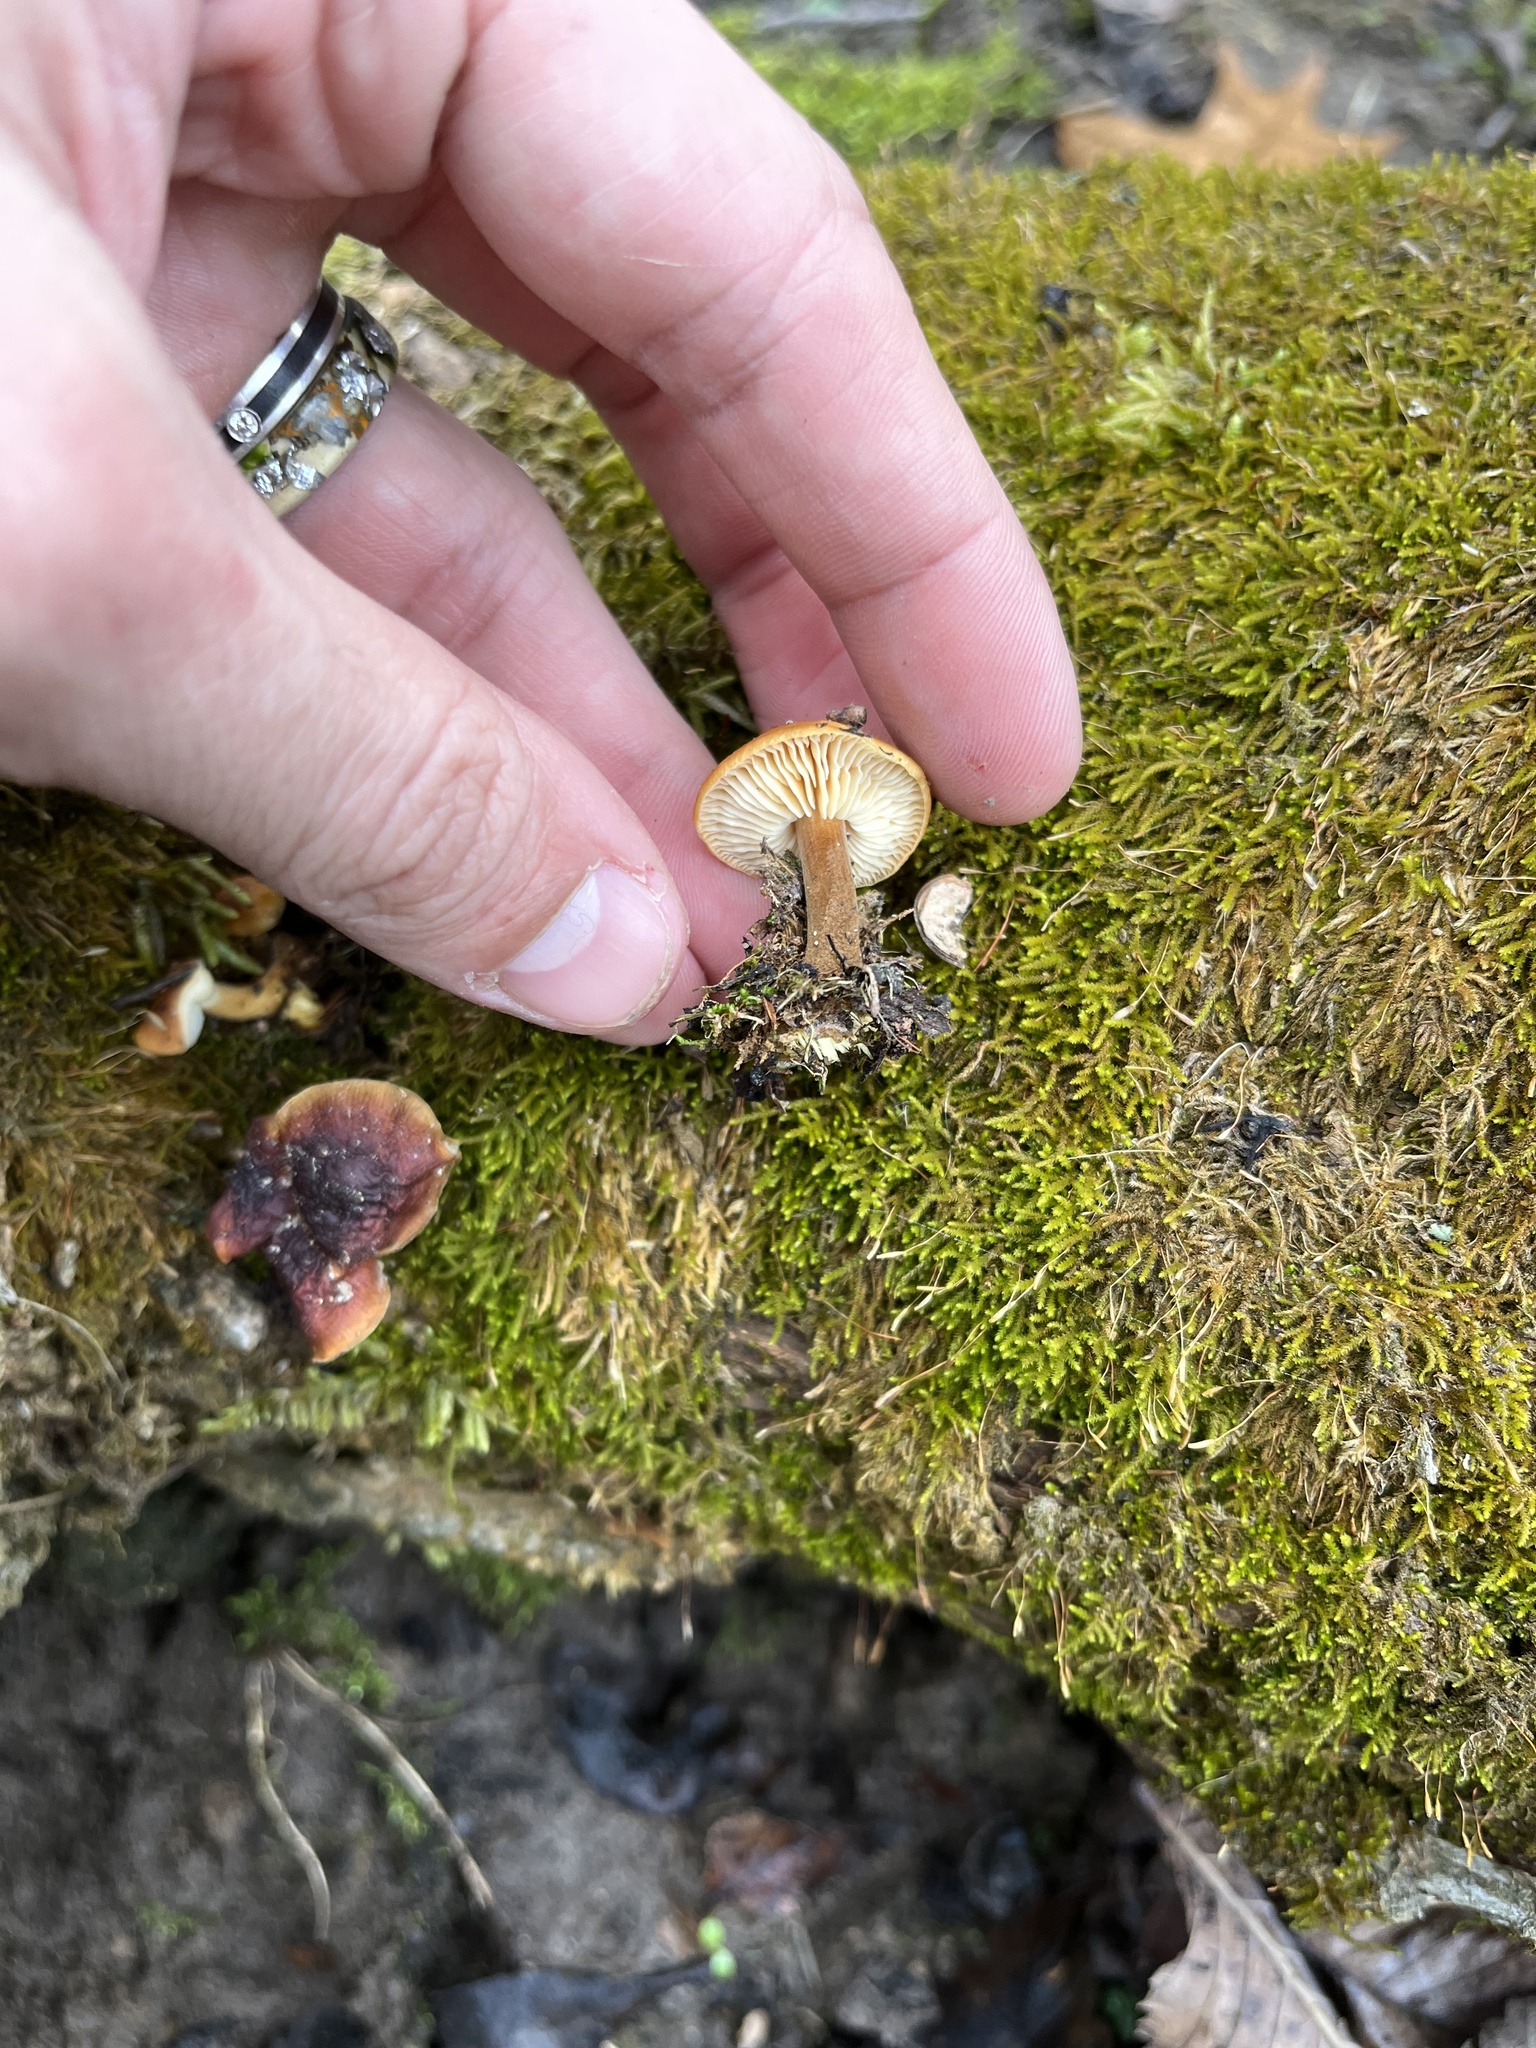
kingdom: Fungi
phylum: Basidiomycota
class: Agaricomycetes
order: Agaricales
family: Hymenogastraceae
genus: Galerina
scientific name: Galerina marginata
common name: Funeral bell
